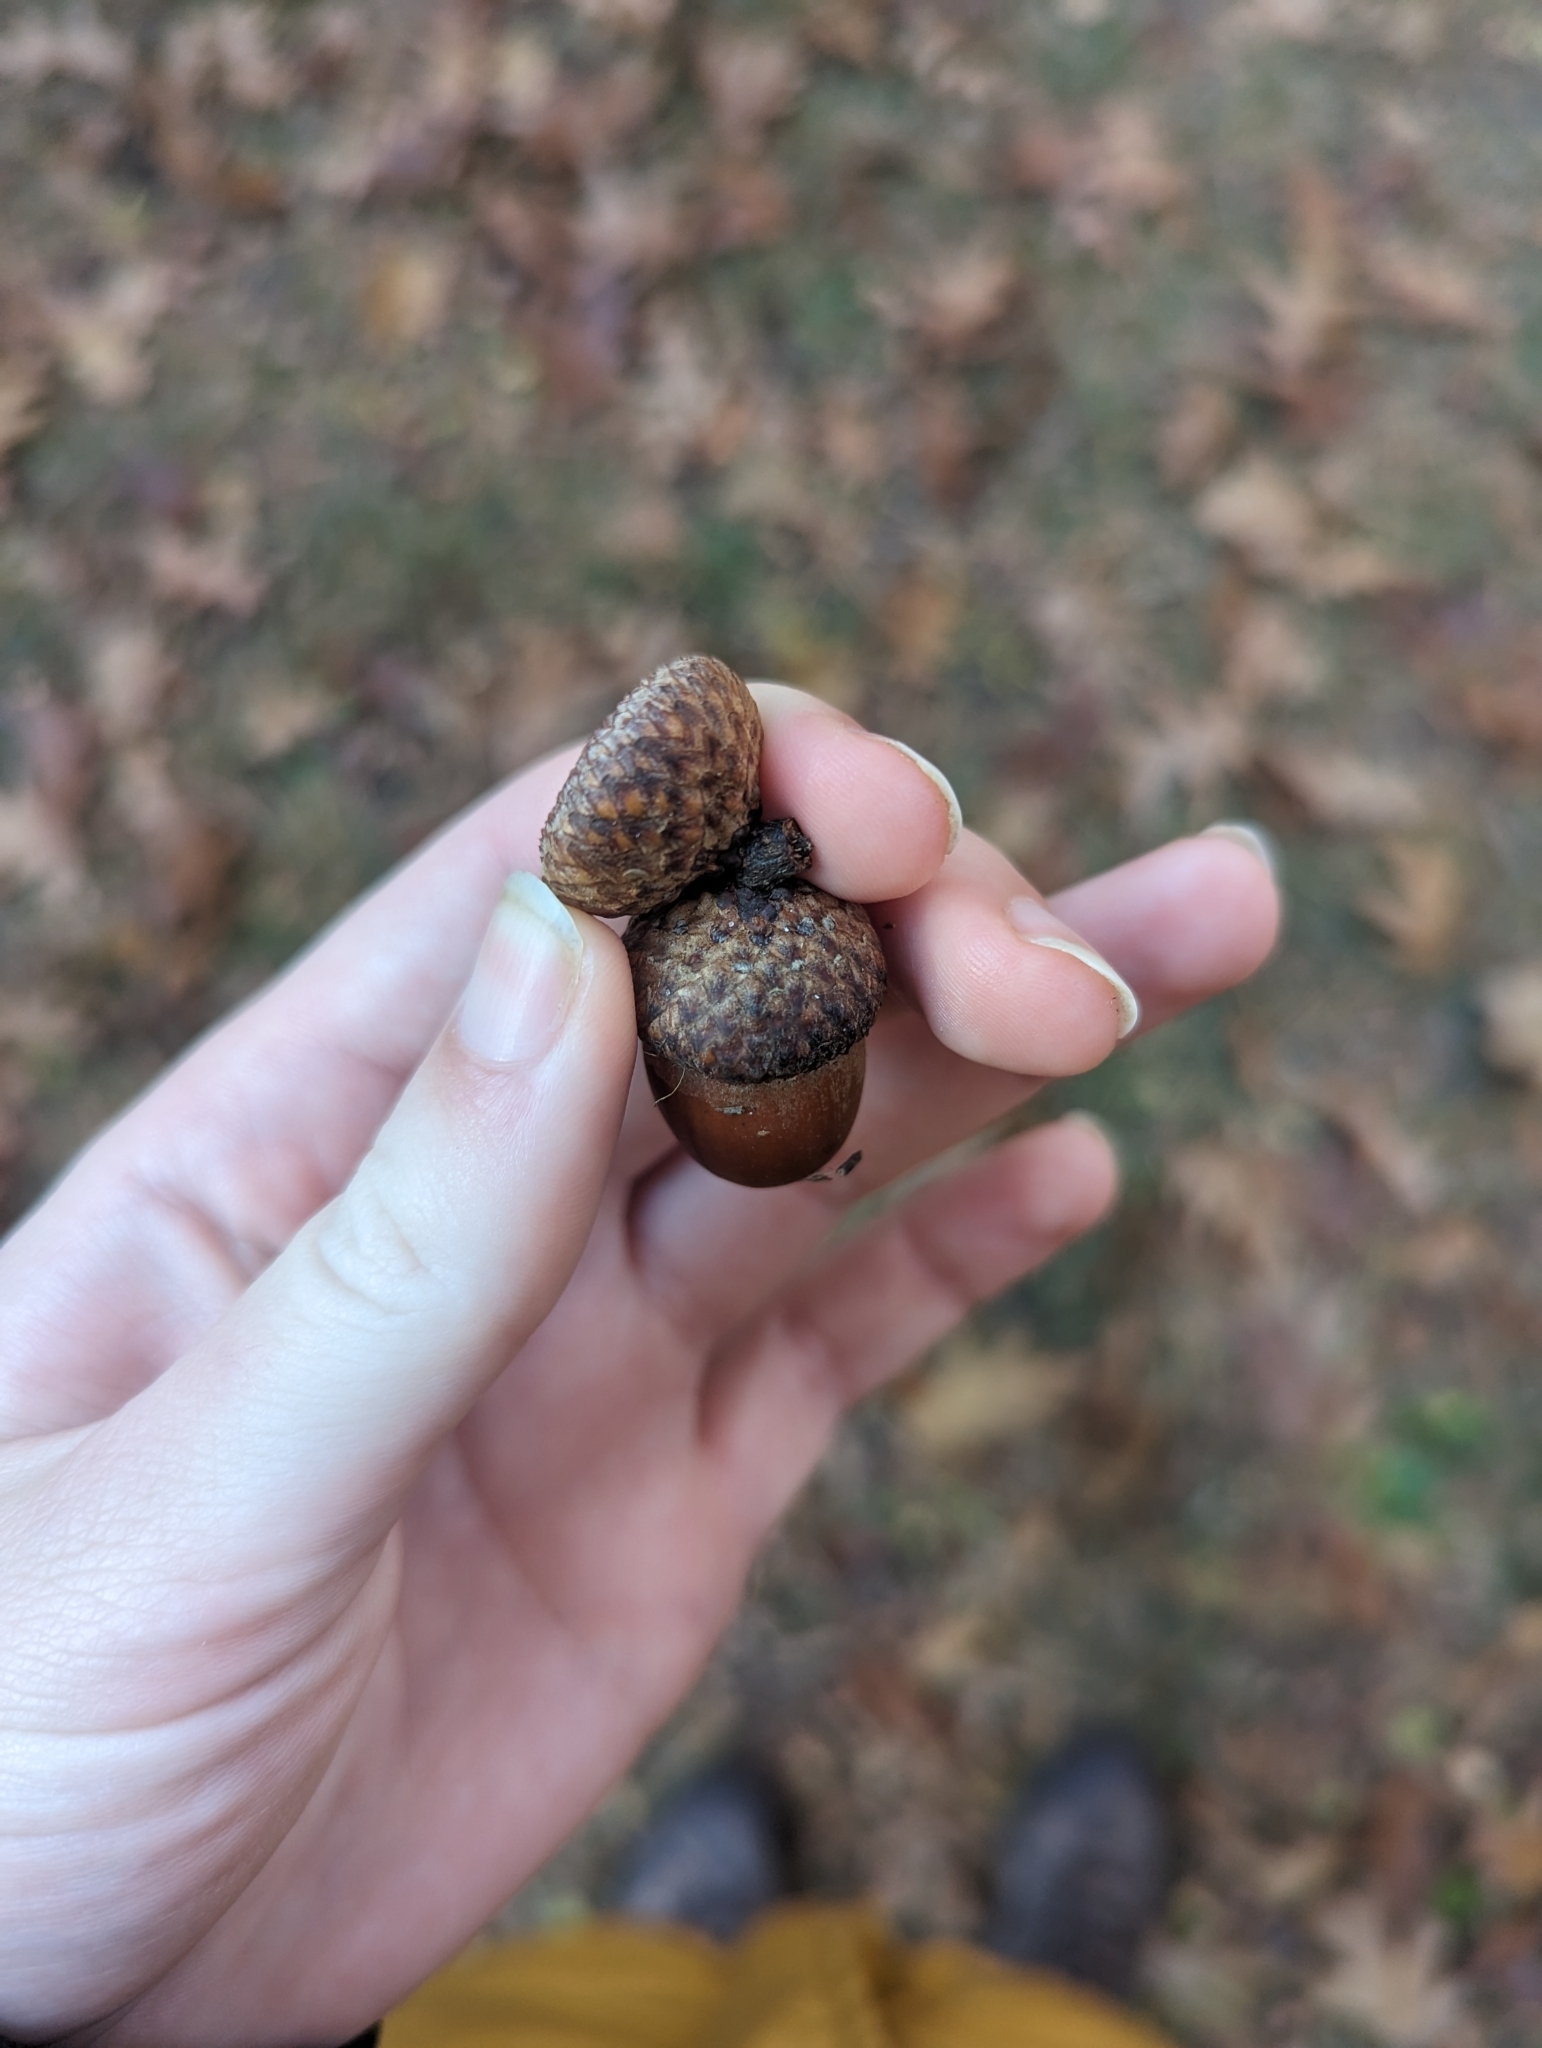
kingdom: Plantae
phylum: Tracheophyta
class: Magnoliopsida
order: Fagales
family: Fagaceae
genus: Quercus
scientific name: Quercus rubra
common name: Red oak
